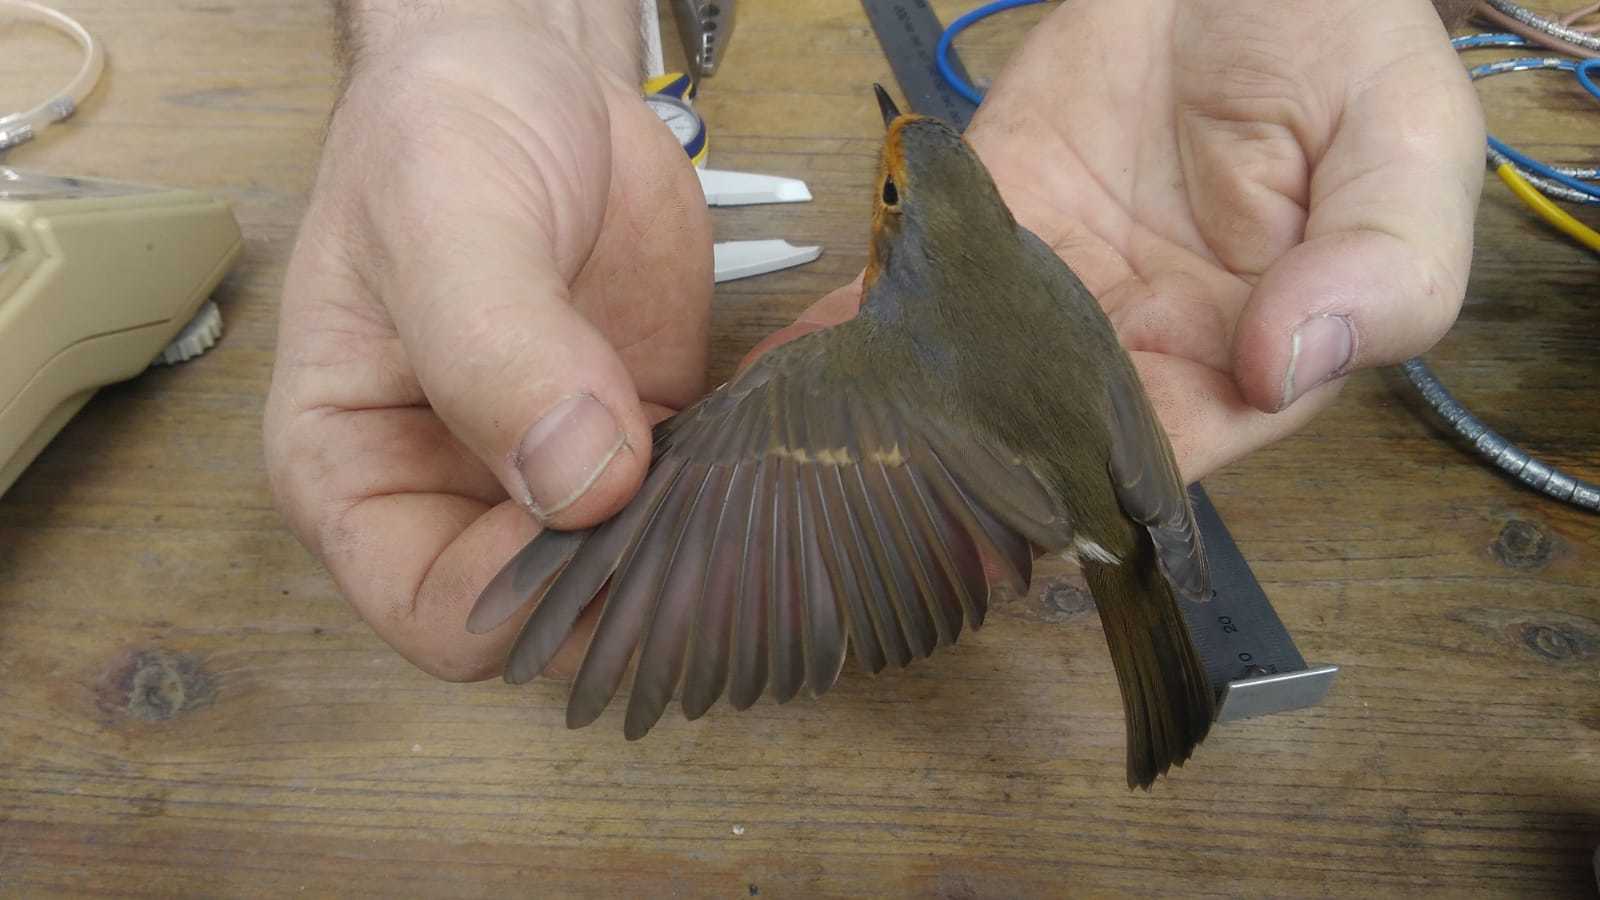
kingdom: Animalia
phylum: Chordata
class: Aves
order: Passeriformes
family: Muscicapidae
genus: Erithacus
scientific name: Erithacus rubecula
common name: European robin
